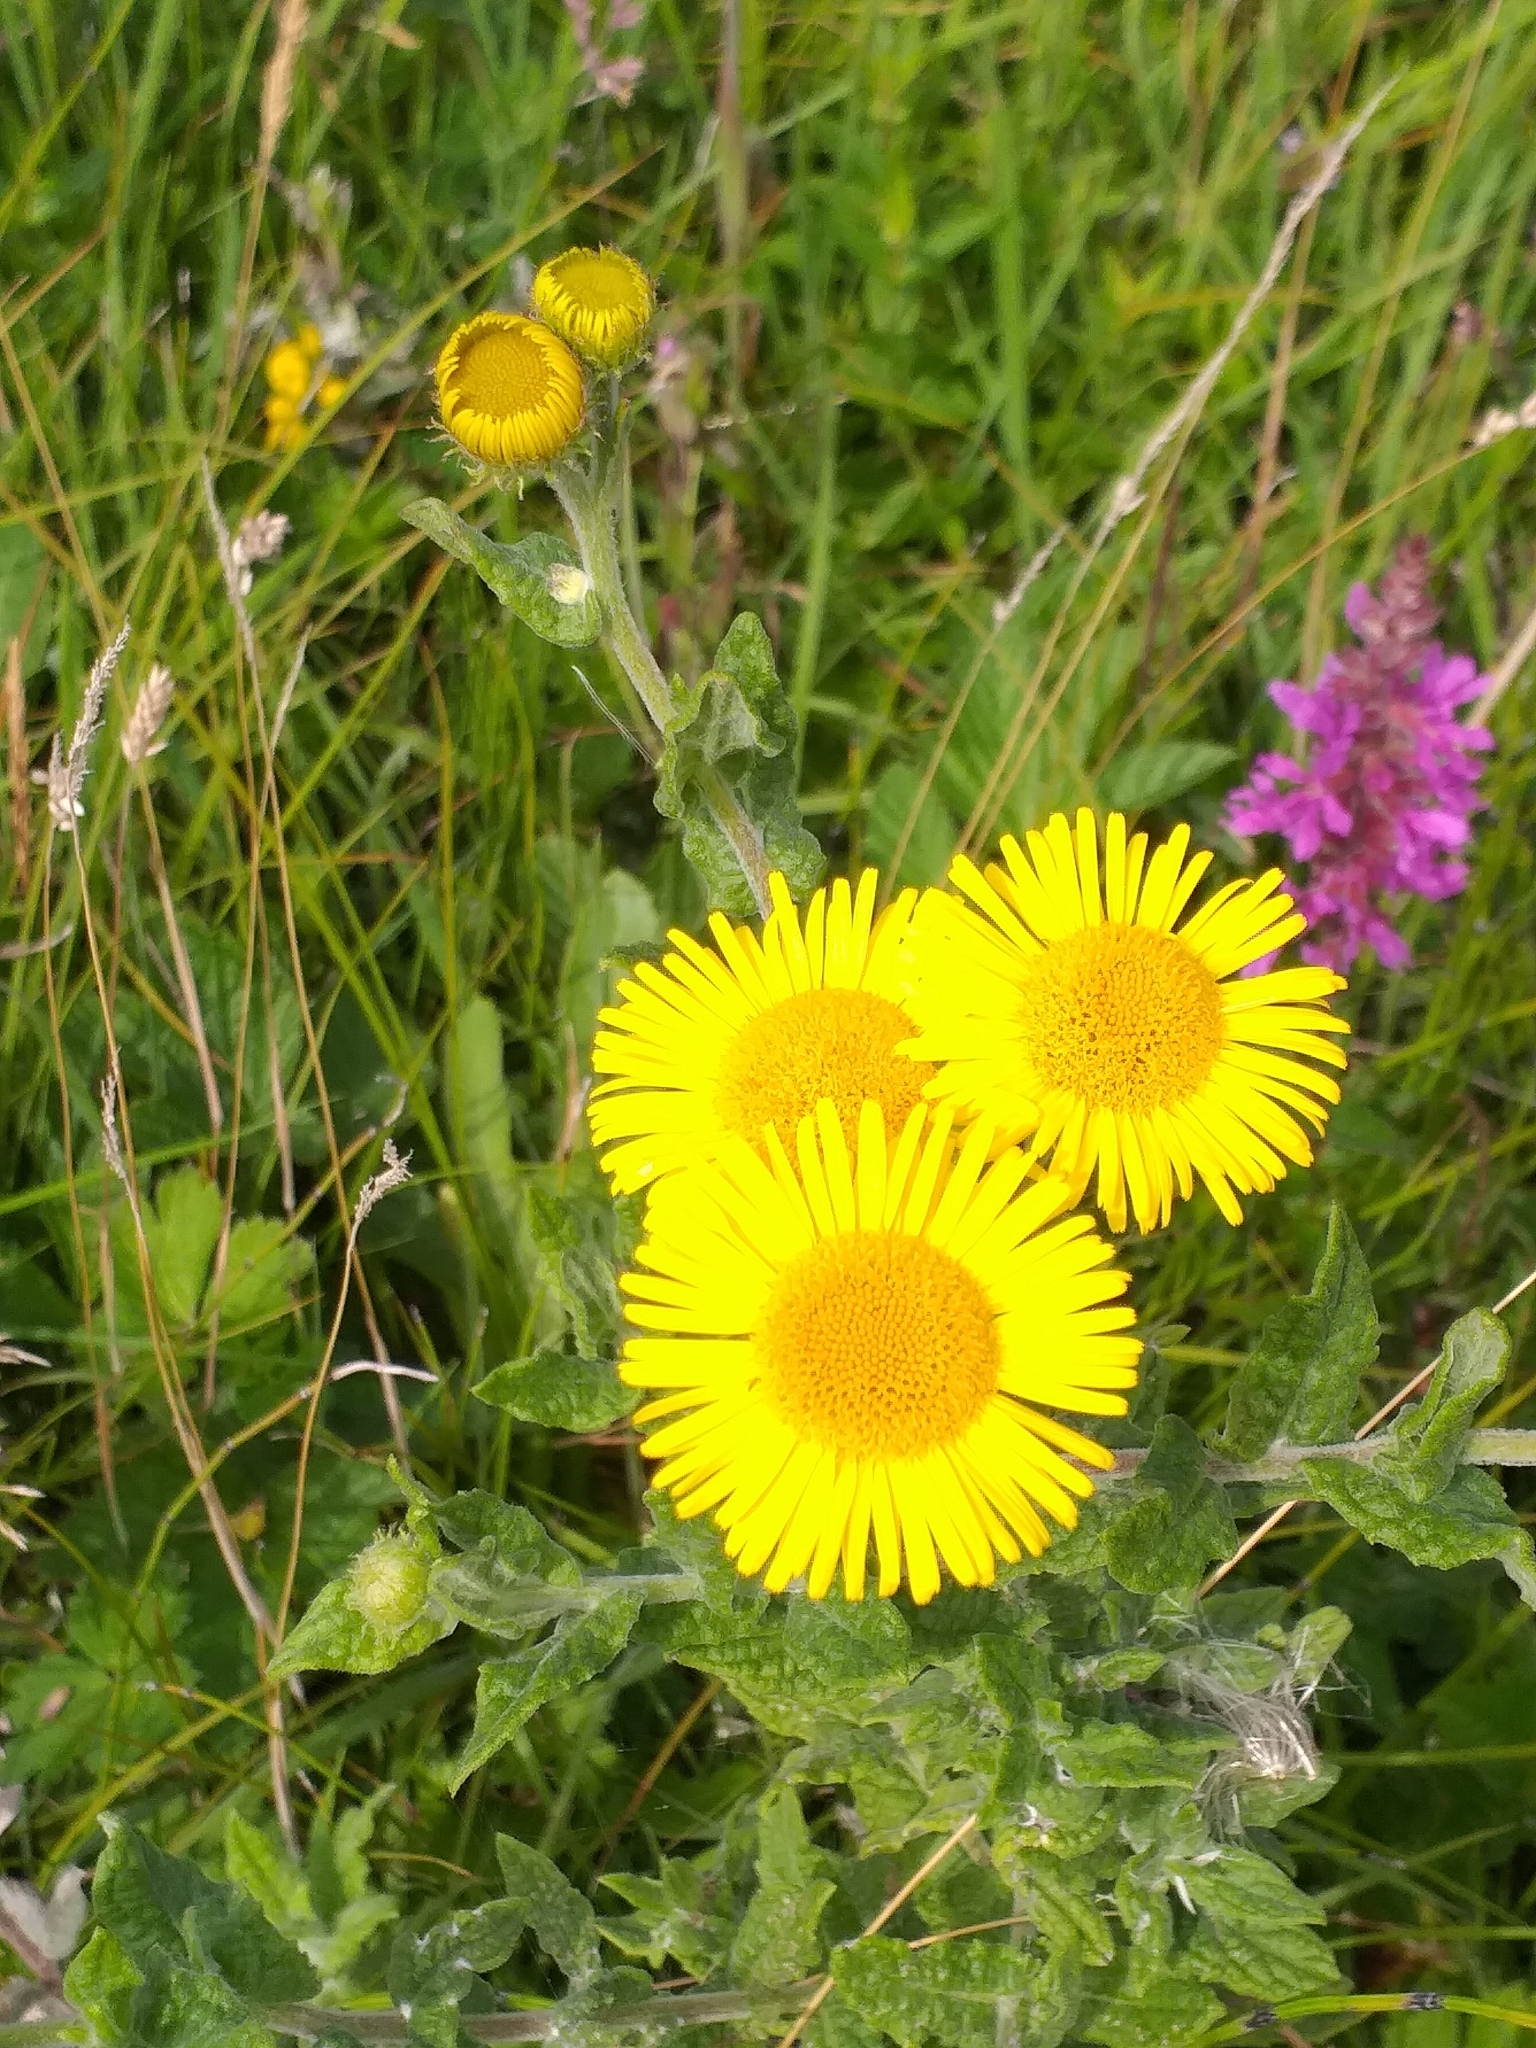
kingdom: Plantae
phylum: Tracheophyta
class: Magnoliopsida
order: Asterales
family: Asteraceae
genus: Pulicaria
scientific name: Pulicaria dysenterica
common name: Common fleabane
